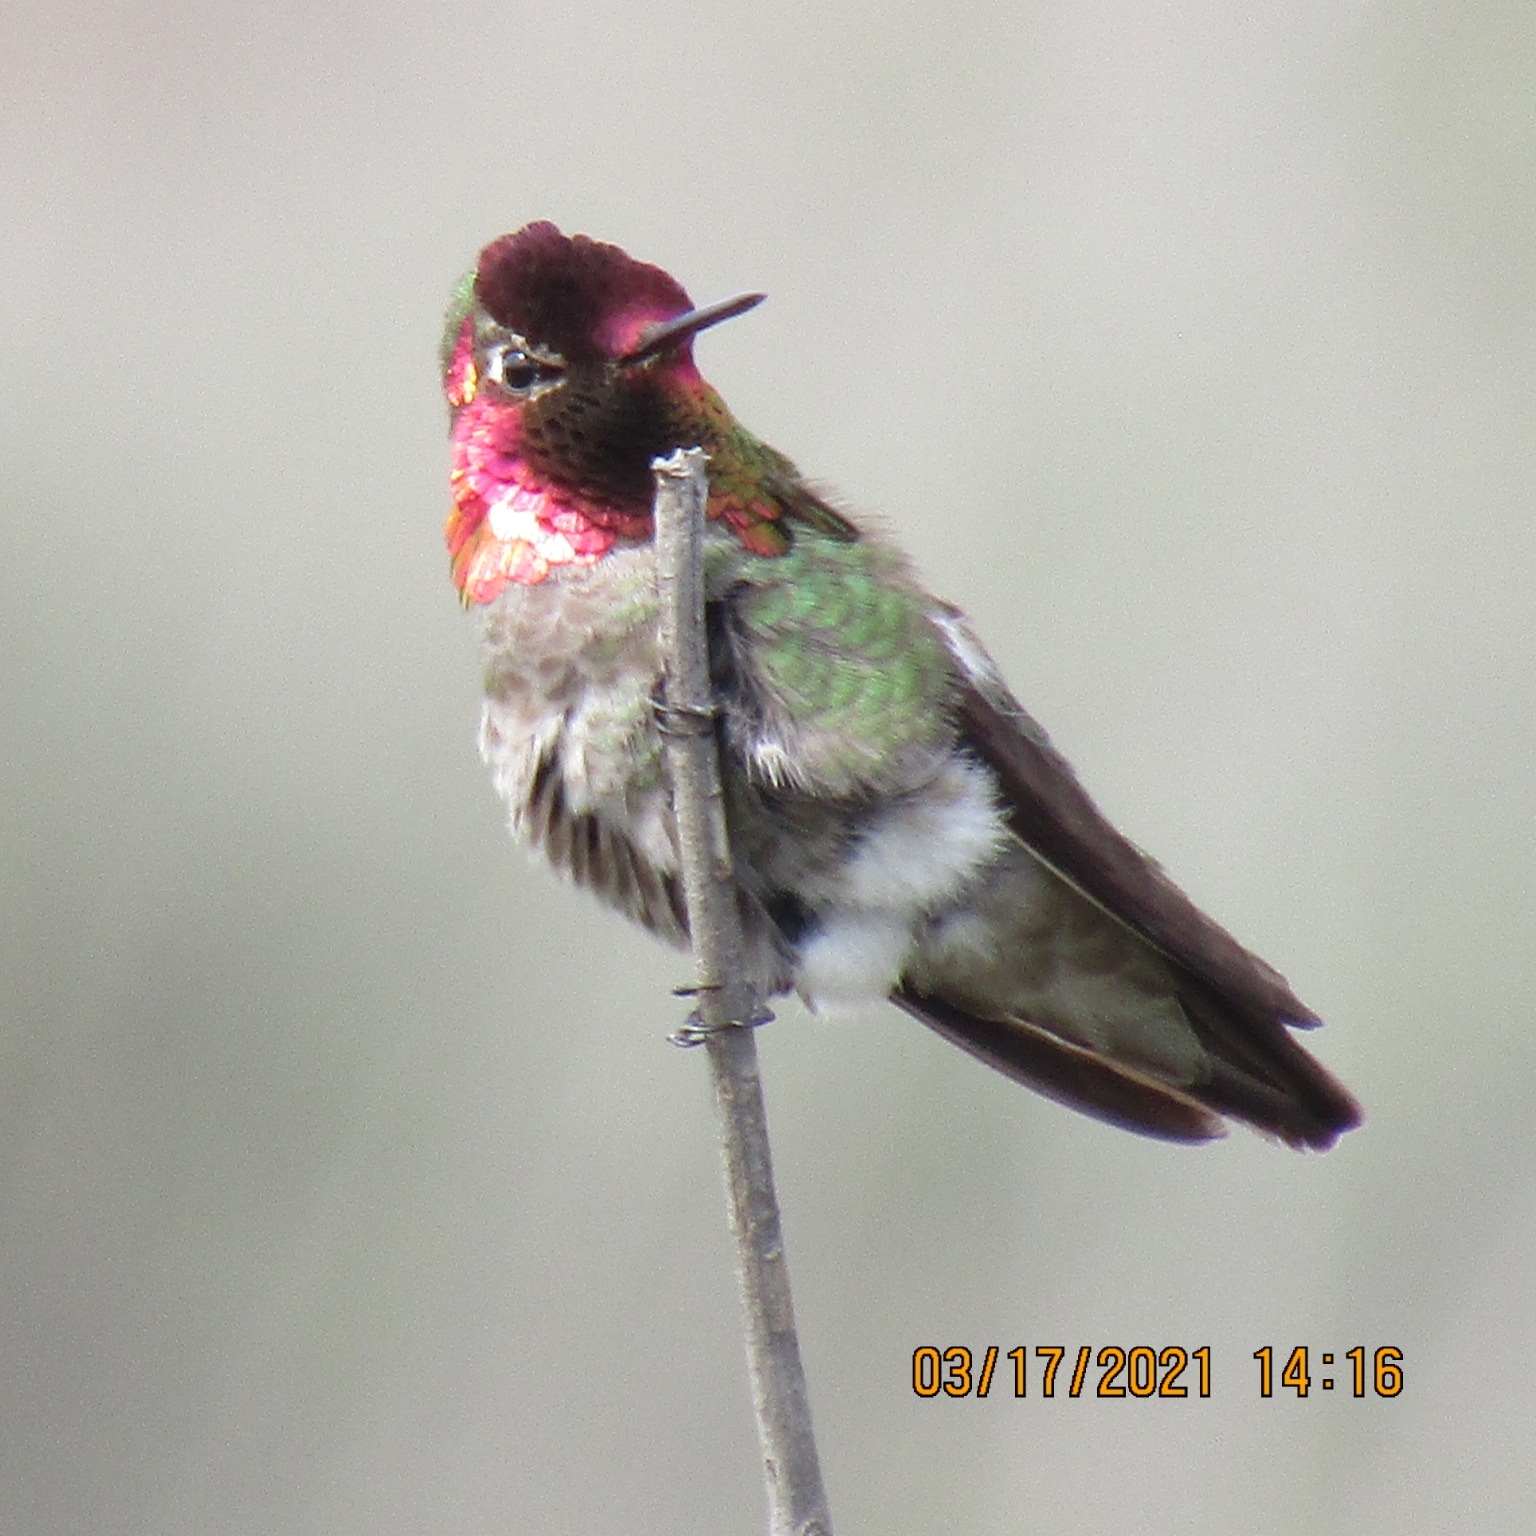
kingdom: Animalia
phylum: Chordata
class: Aves
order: Apodiformes
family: Trochilidae
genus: Calypte
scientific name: Calypte anna
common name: Anna's hummingbird
